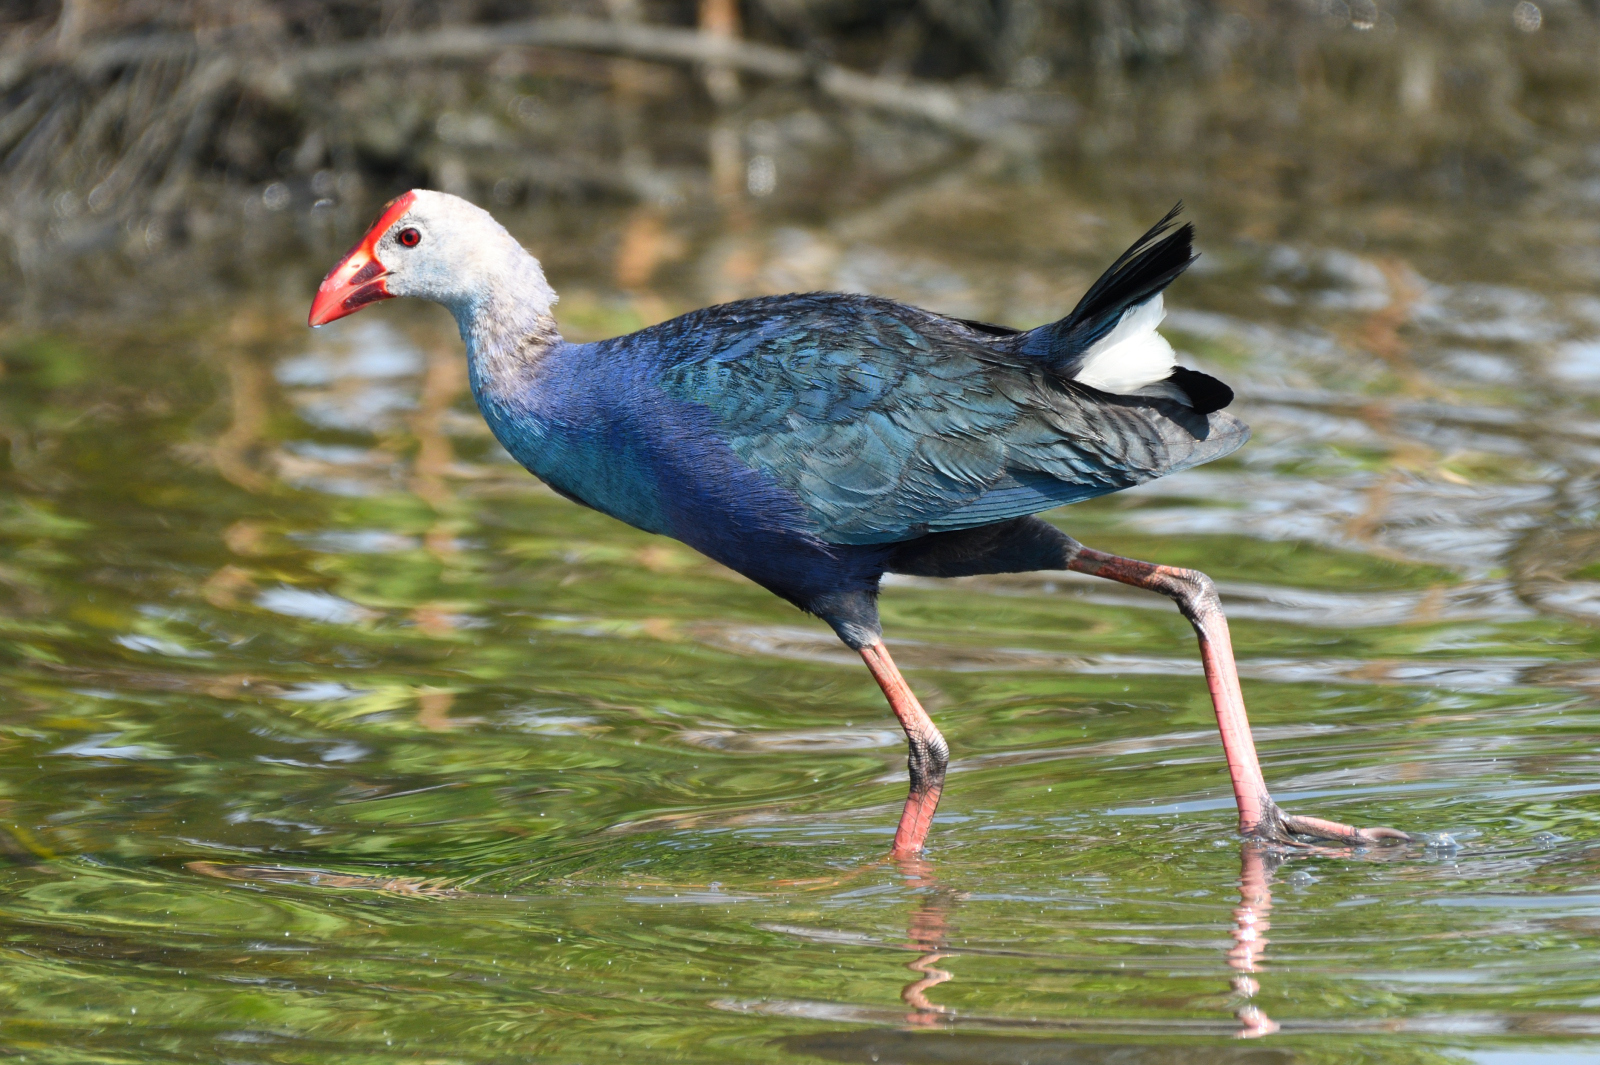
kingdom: Animalia
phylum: Chordata
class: Aves
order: Gruiformes
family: Rallidae
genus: Porphyrio
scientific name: Porphyrio porphyrio
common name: Purple swamphen
